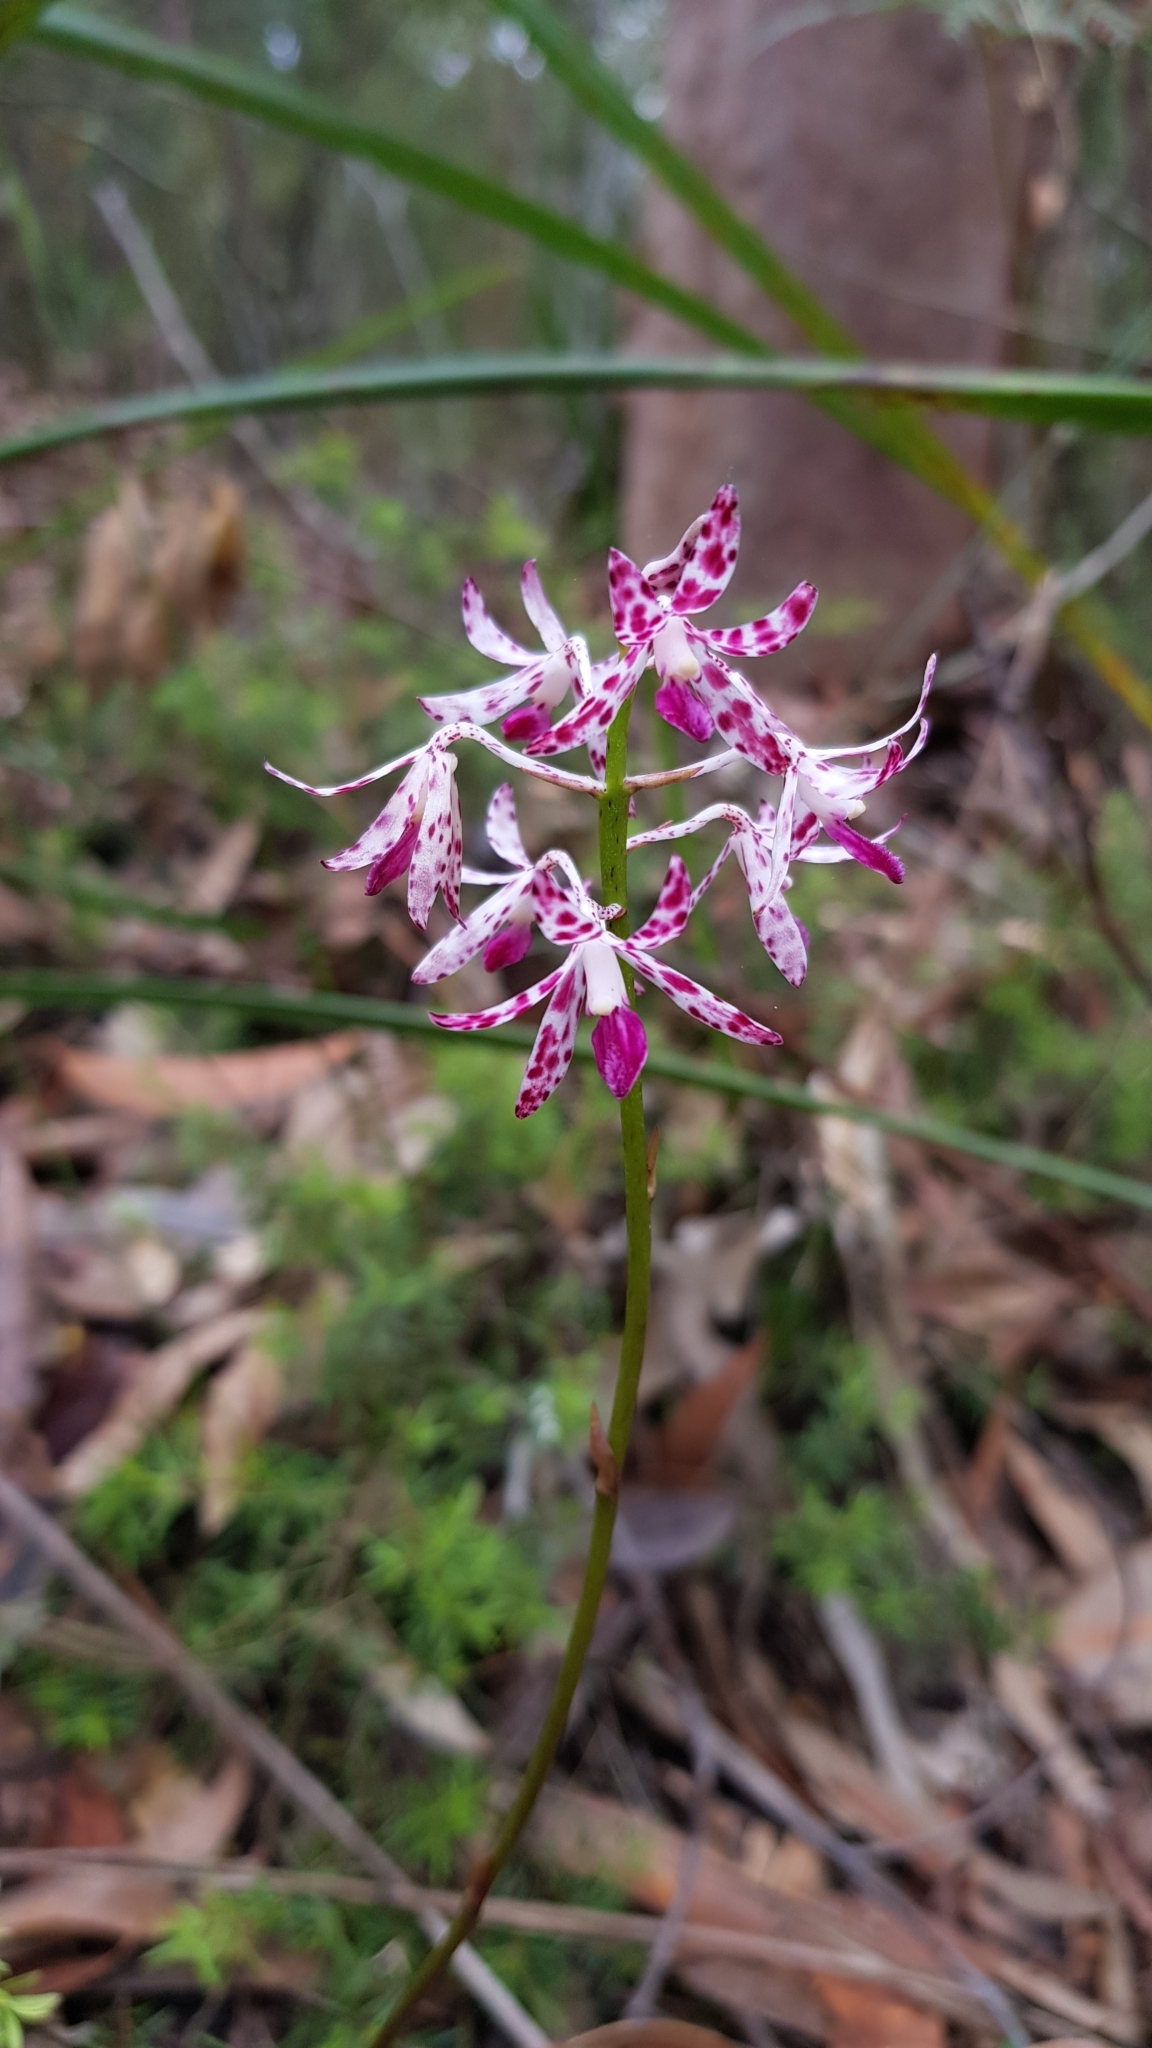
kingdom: Plantae
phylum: Tracheophyta
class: Liliopsida
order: Asparagales
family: Orchidaceae
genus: Dipodium
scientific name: Dipodium variegatum
